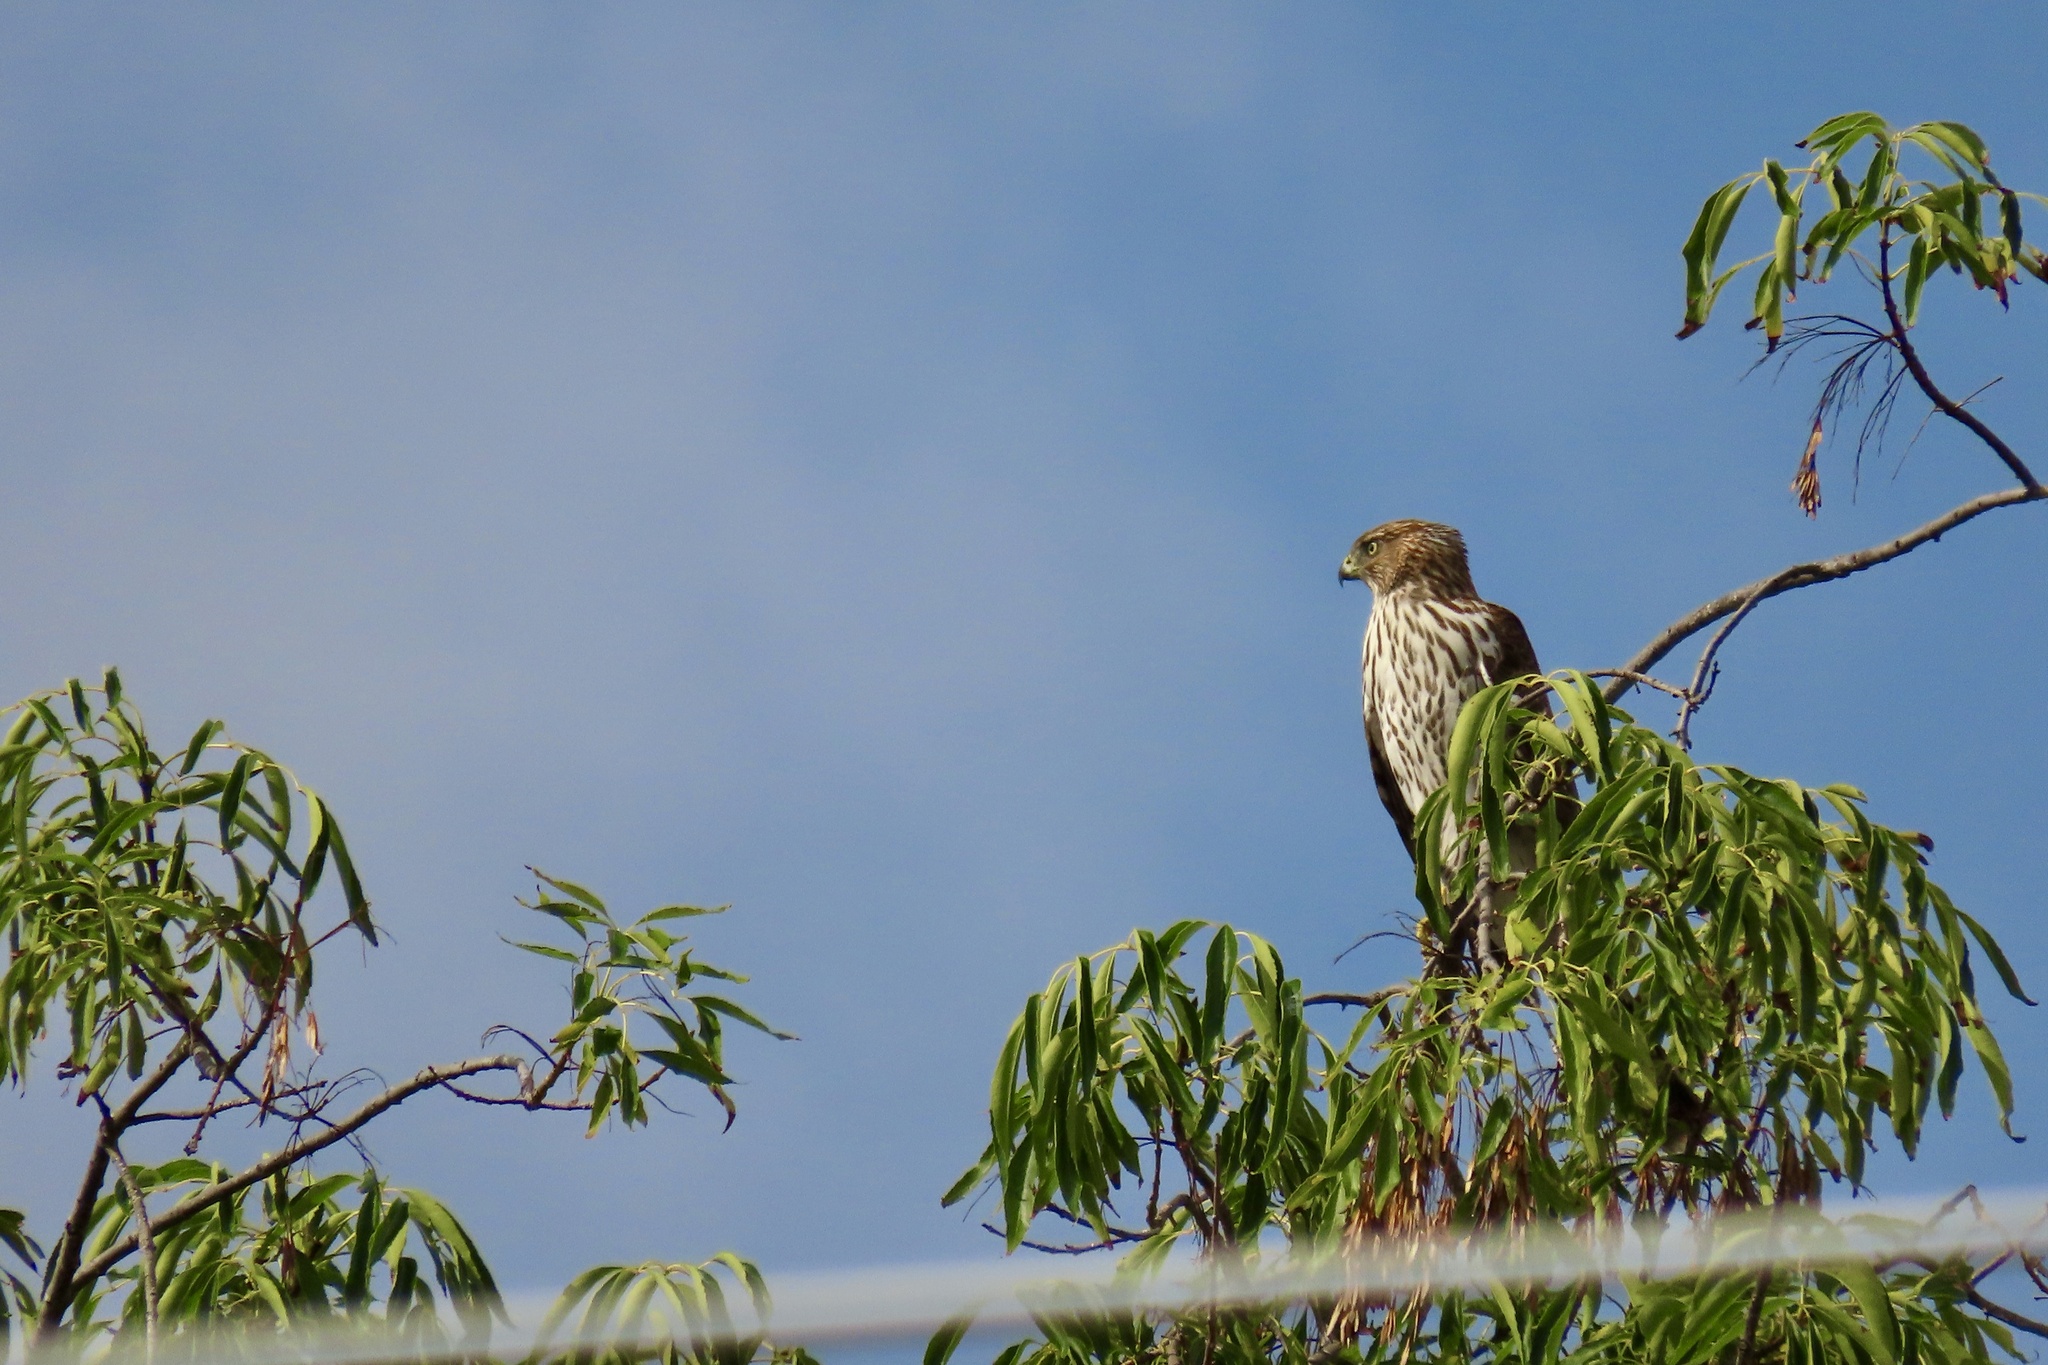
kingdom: Animalia
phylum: Chordata
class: Aves
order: Accipitriformes
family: Accipitridae
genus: Accipiter
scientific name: Accipiter cooperii
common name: Cooper's hawk
